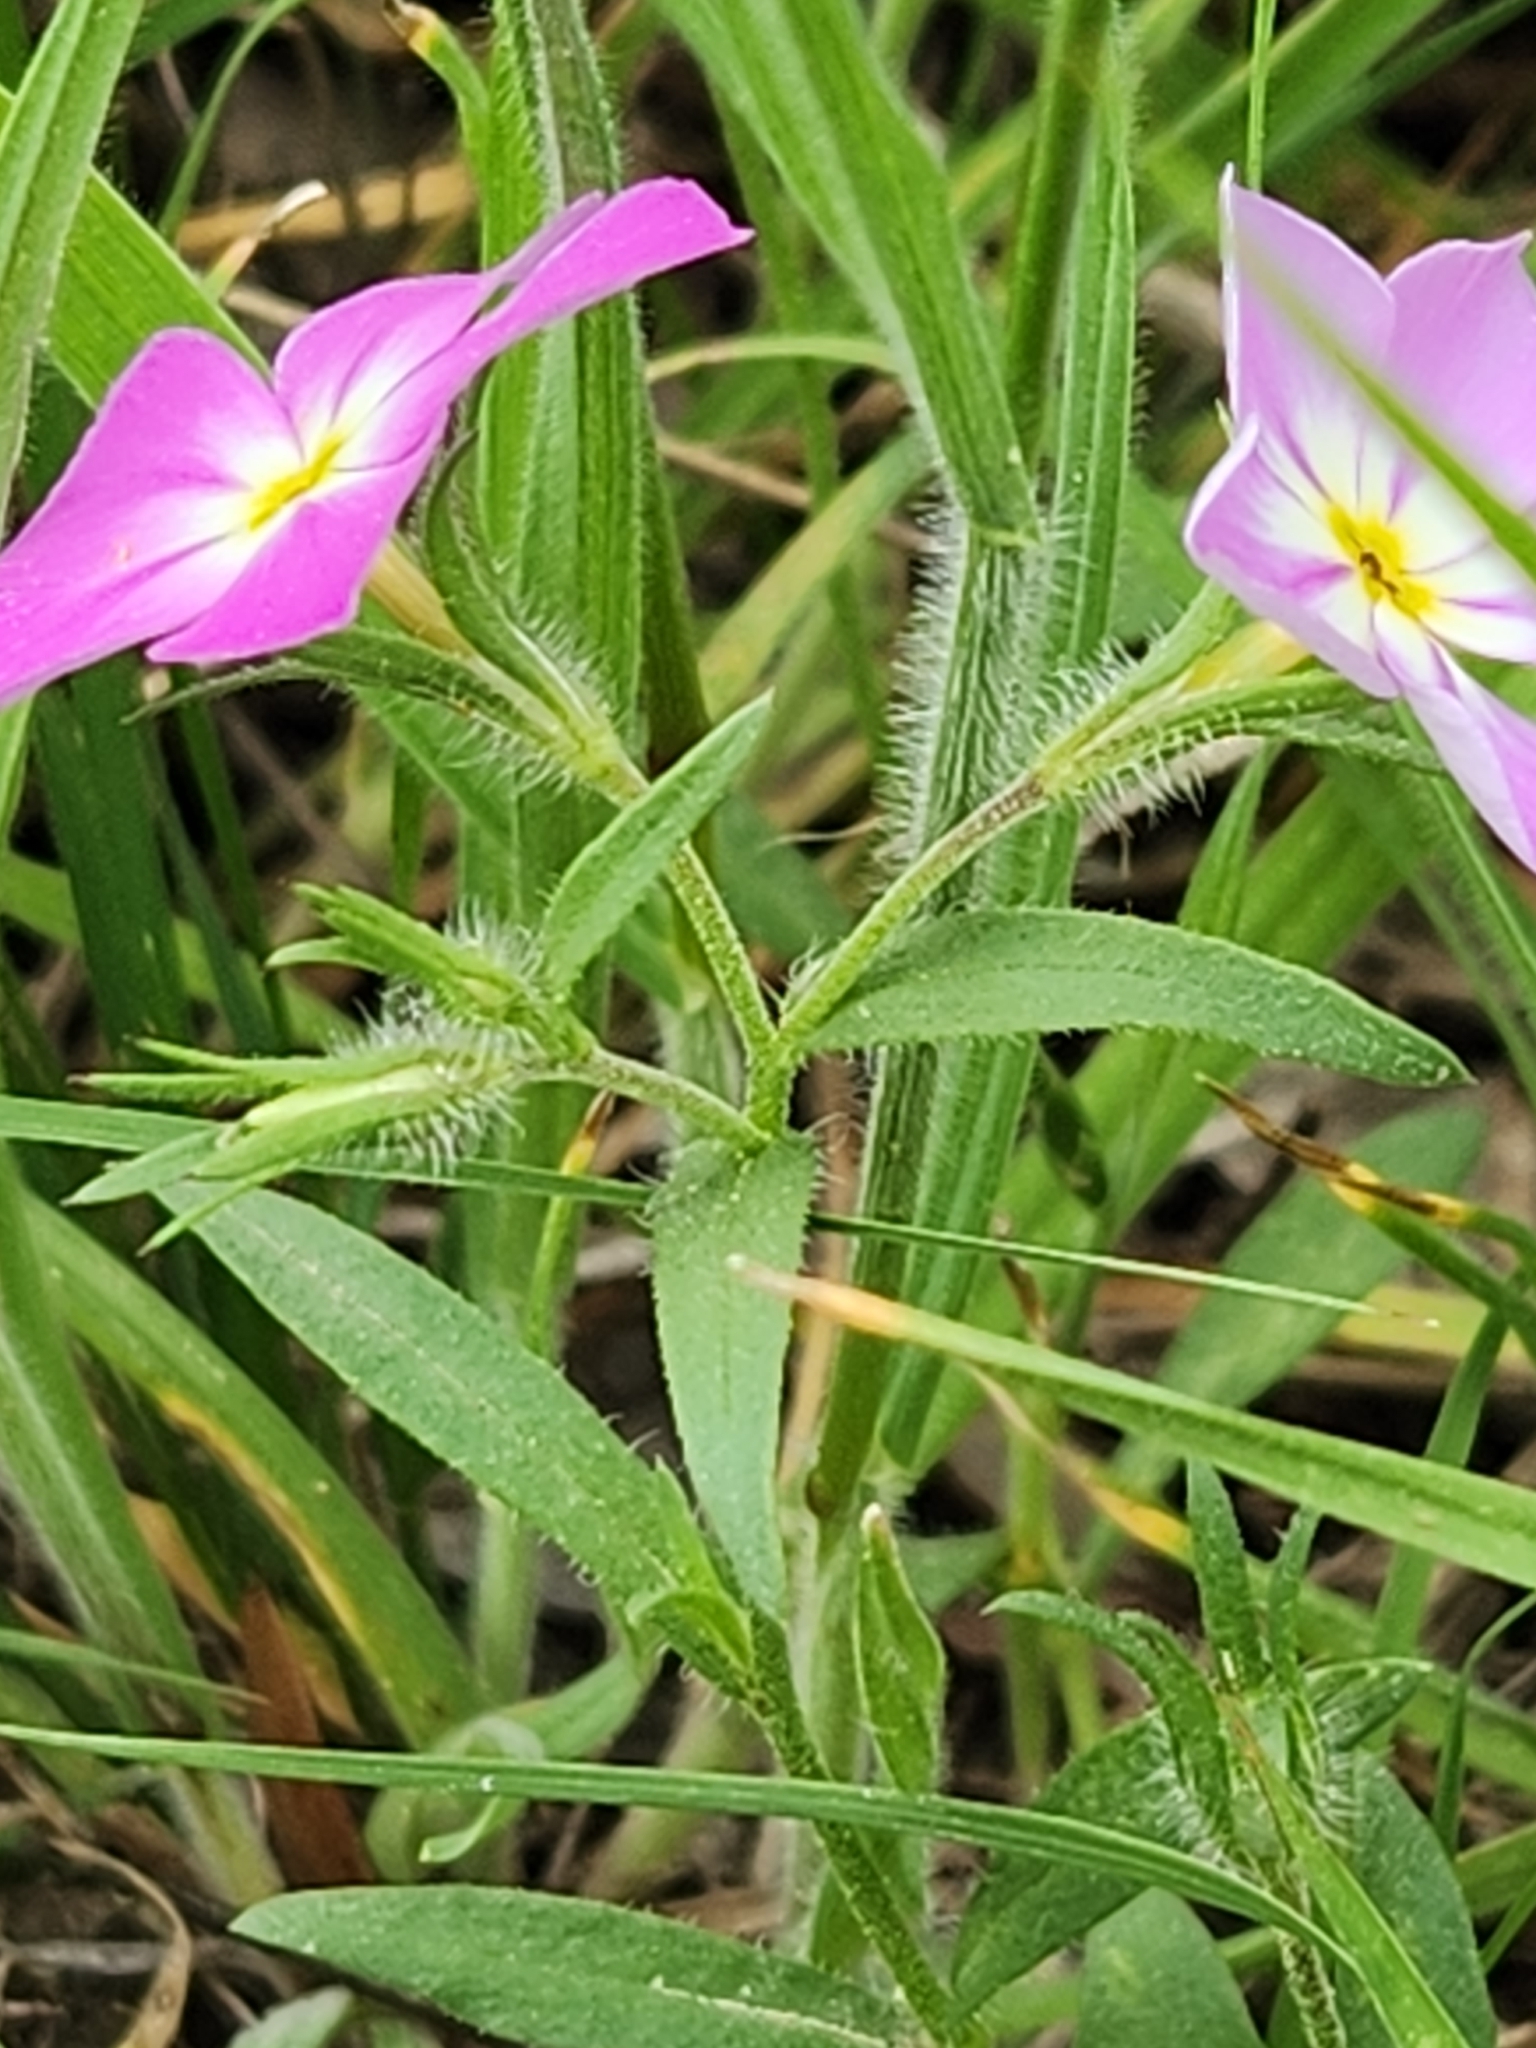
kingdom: Plantae
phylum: Tracheophyta
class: Magnoliopsida
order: Ericales
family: Polemoniaceae
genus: Phlox
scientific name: Phlox roemeriana
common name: Roemer's phlox
